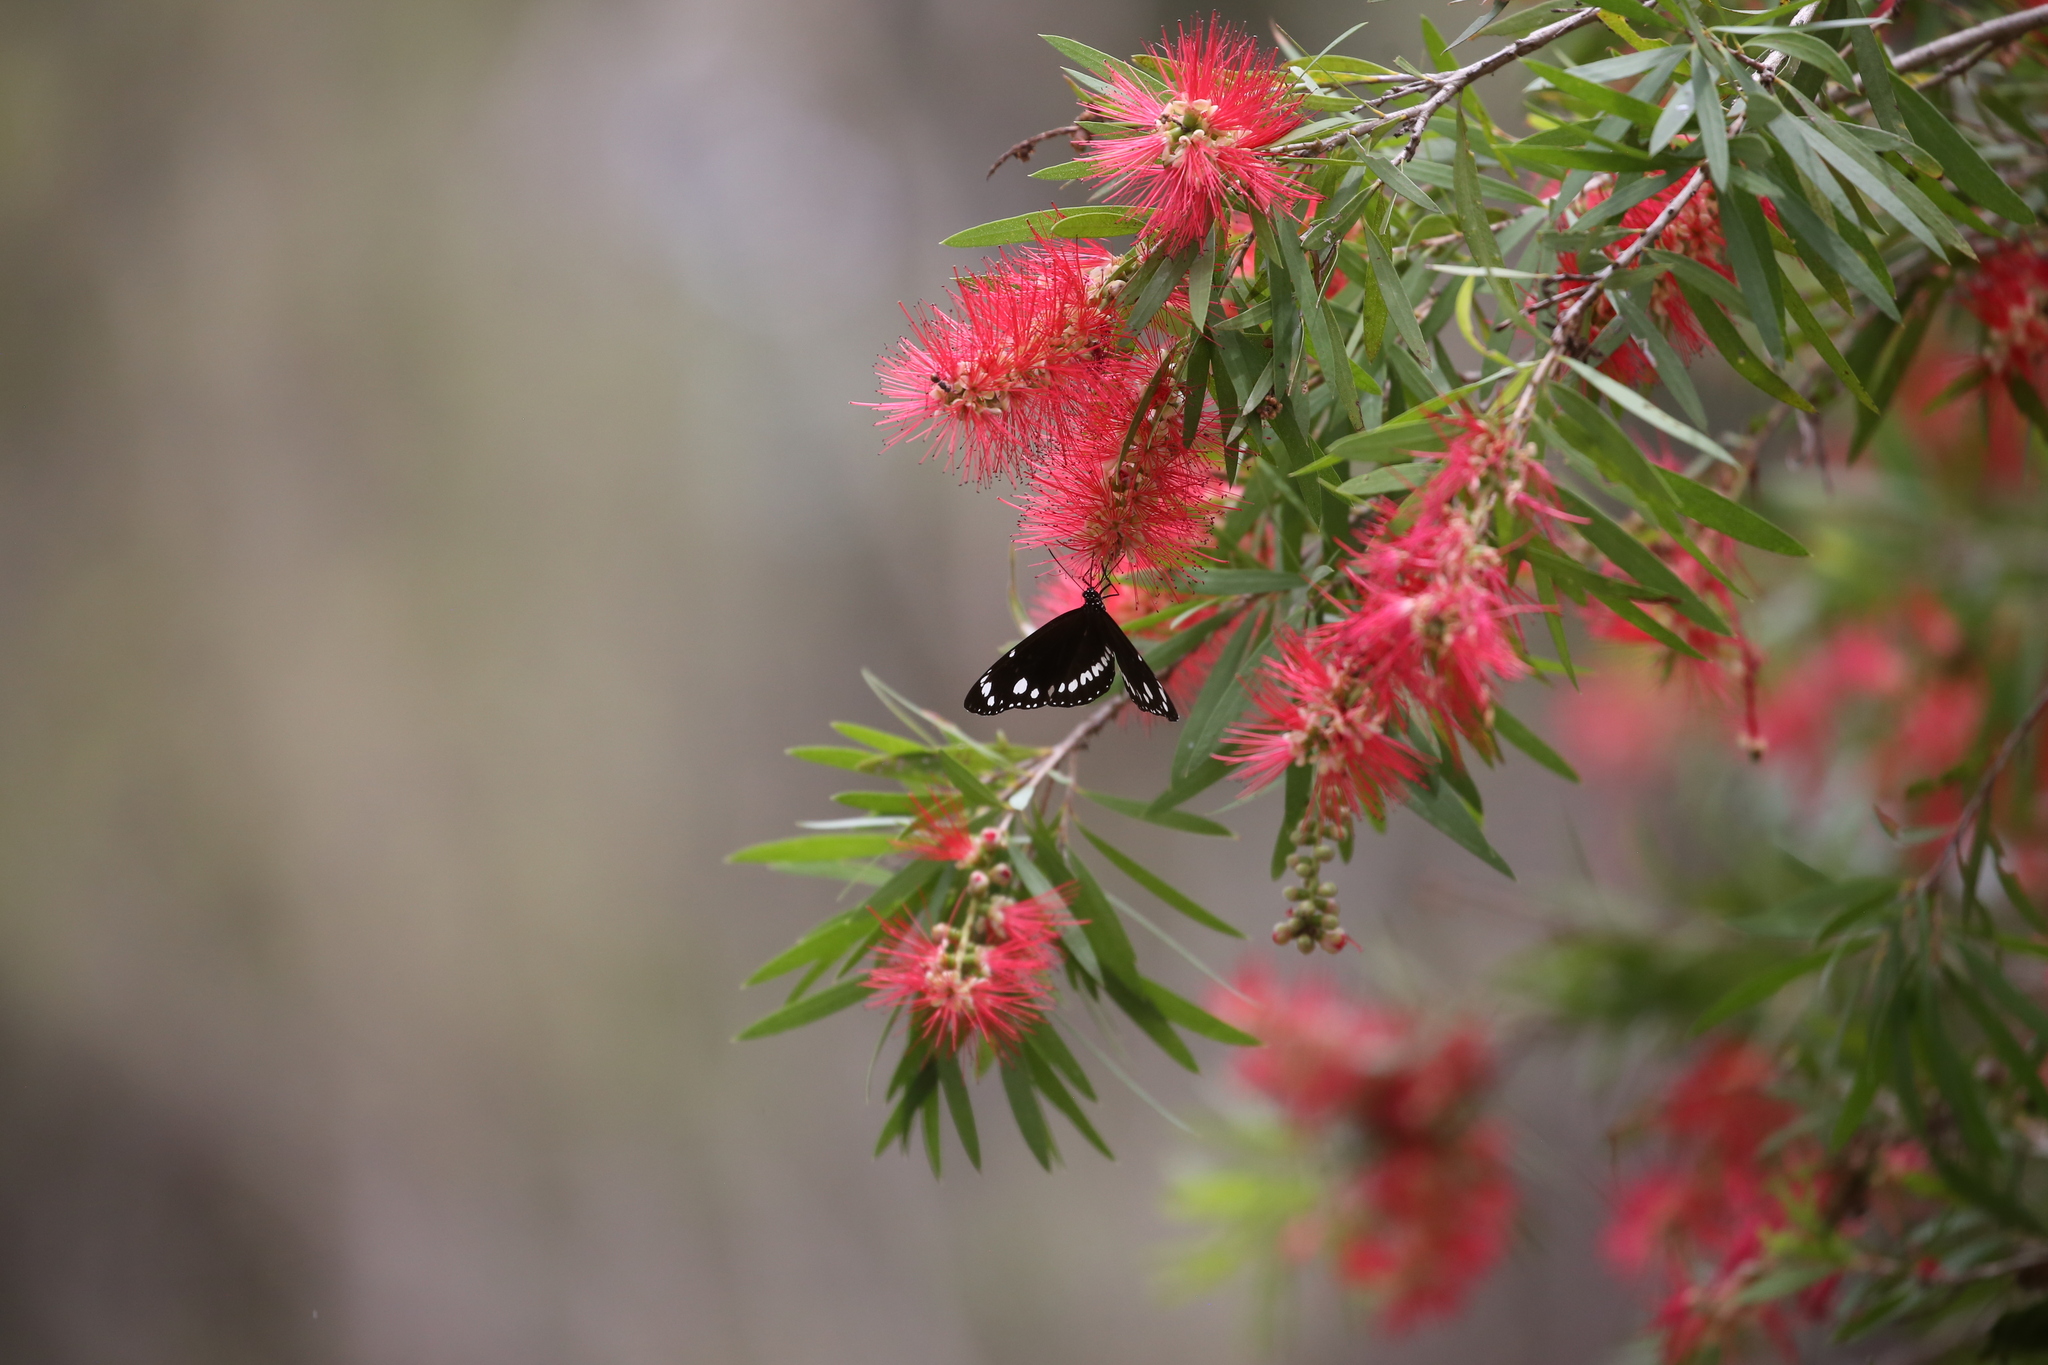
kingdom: Animalia
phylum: Arthropoda
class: Insecta
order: Lepidoptera
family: Nymphalidae
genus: Euploea
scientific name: Euploea core
